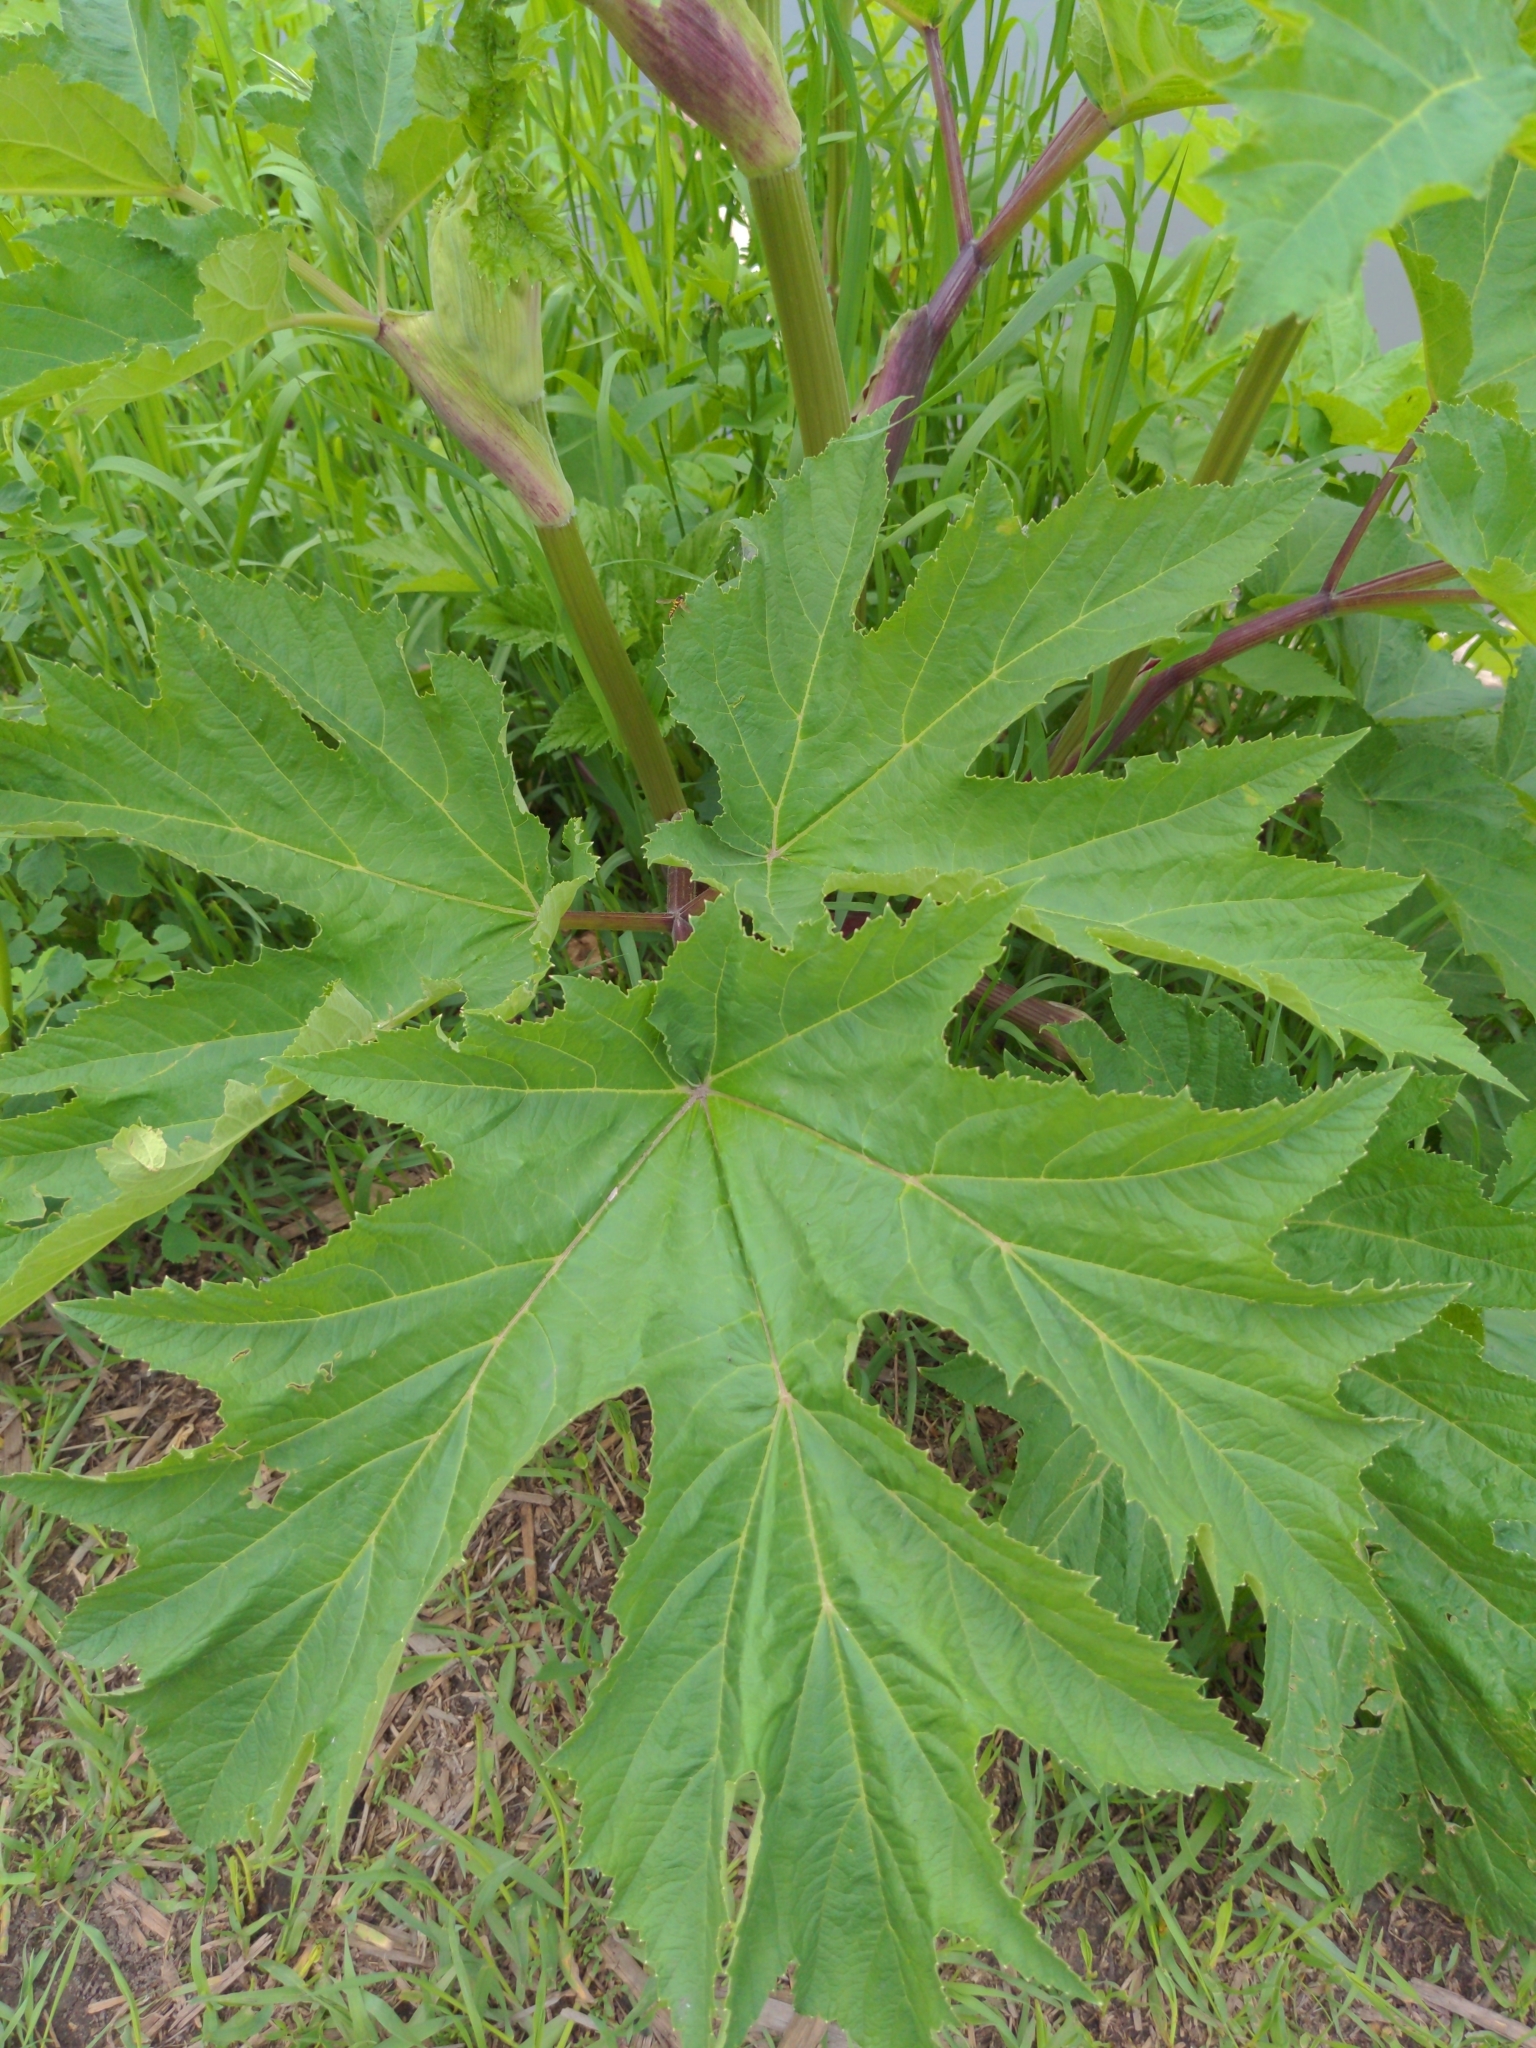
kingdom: Plantae
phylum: Tracheophyta
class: Magnoliopsida
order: Apiales
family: Apiaceae
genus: Heracleum
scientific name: Heracleum maximum
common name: American cow parsnip
